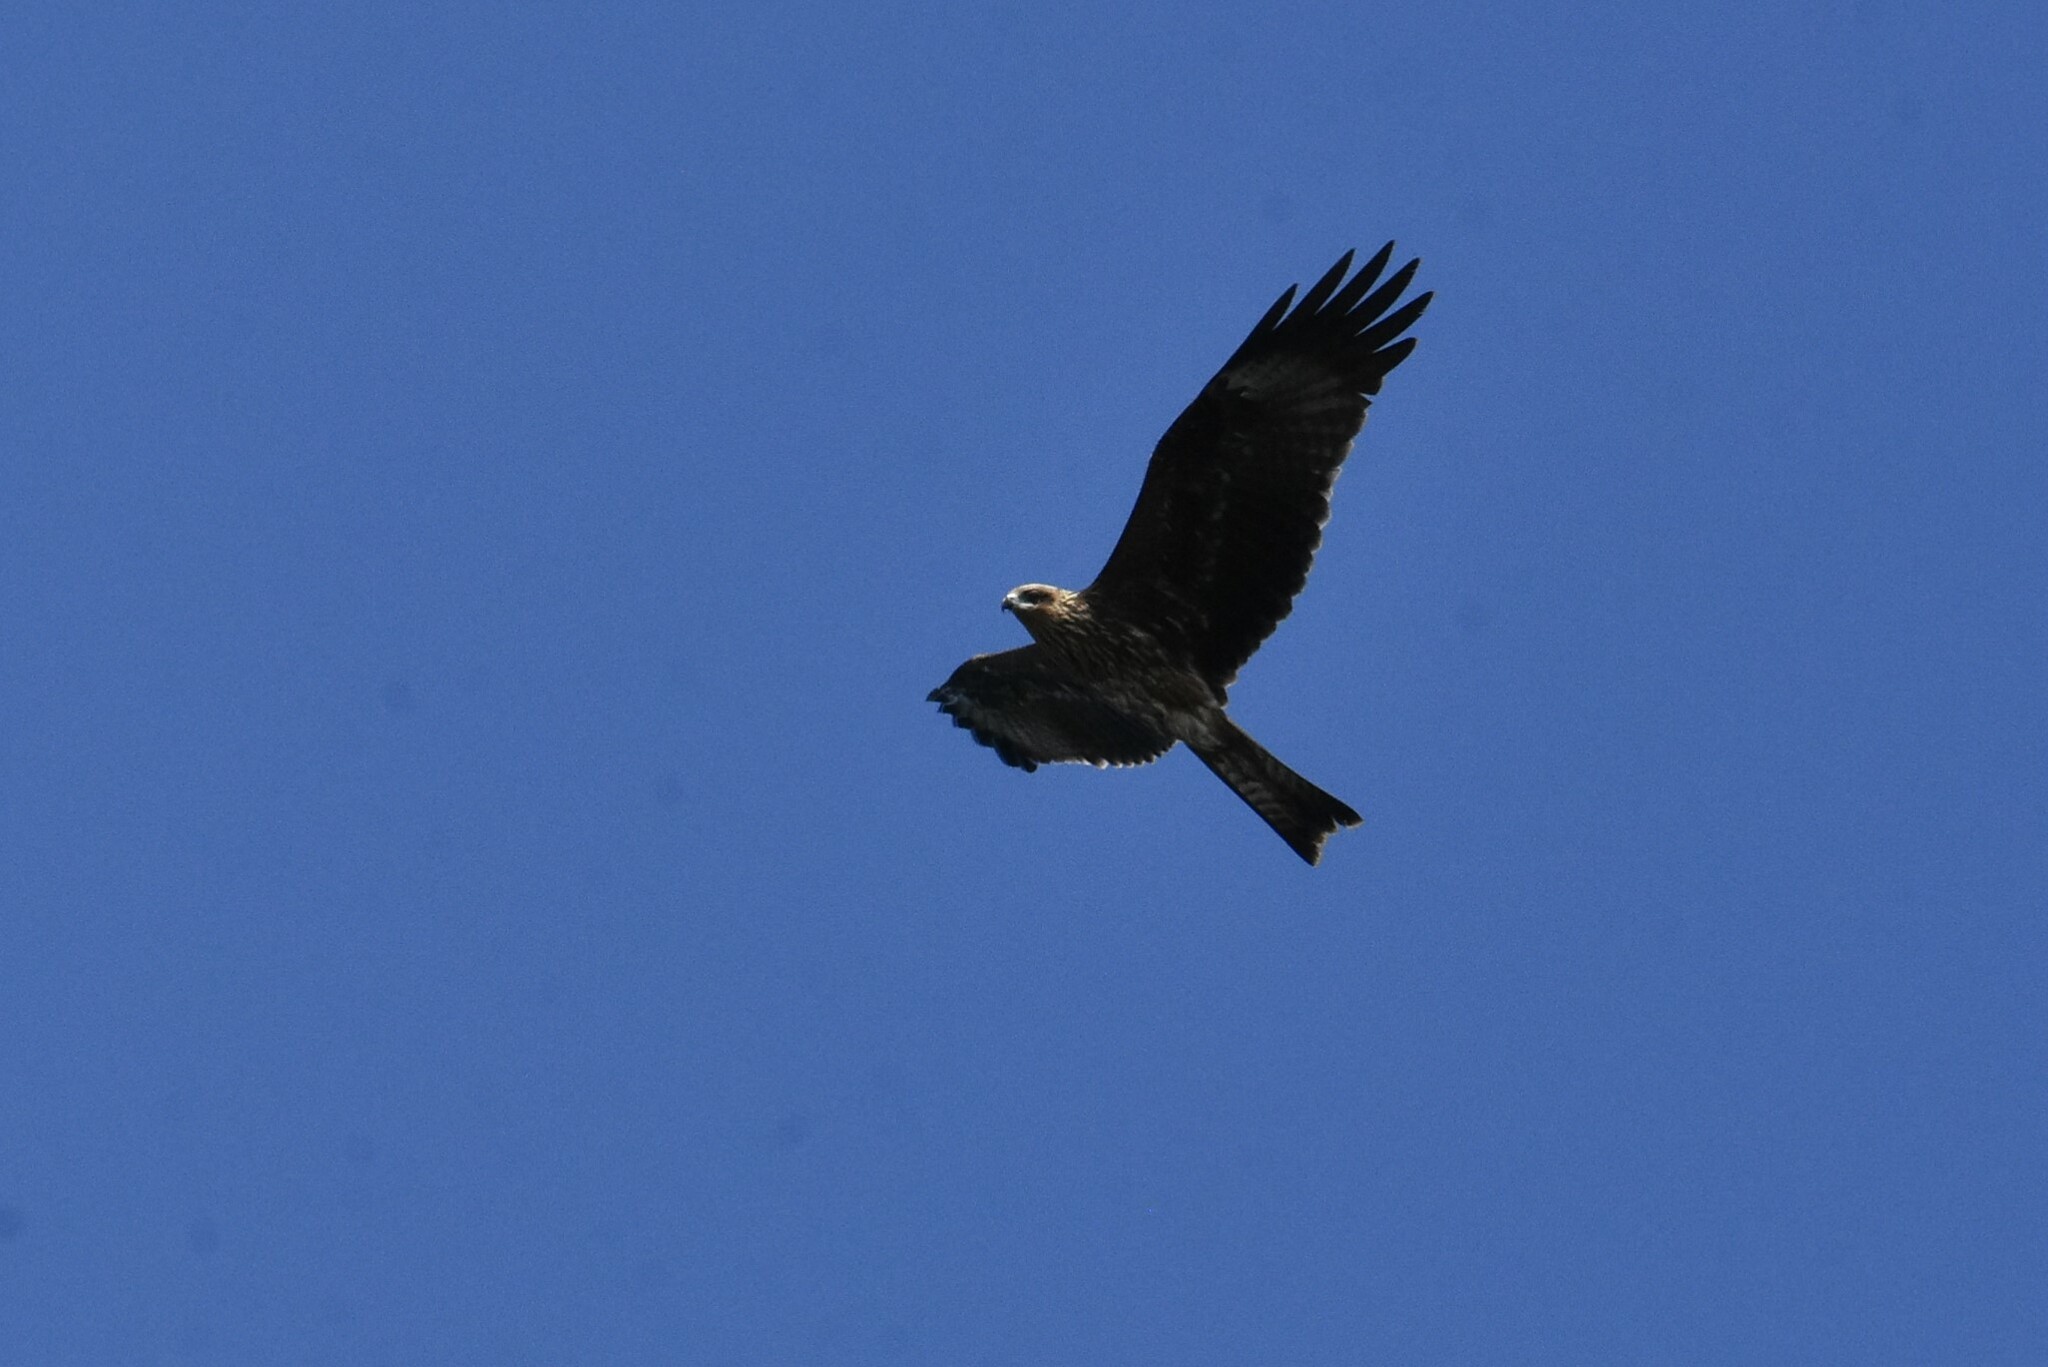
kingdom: Animalia
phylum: Chordata
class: Aves
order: Accipitriformes
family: Accipitridae
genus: Milvus
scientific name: Milvus migrans
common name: Black kite
